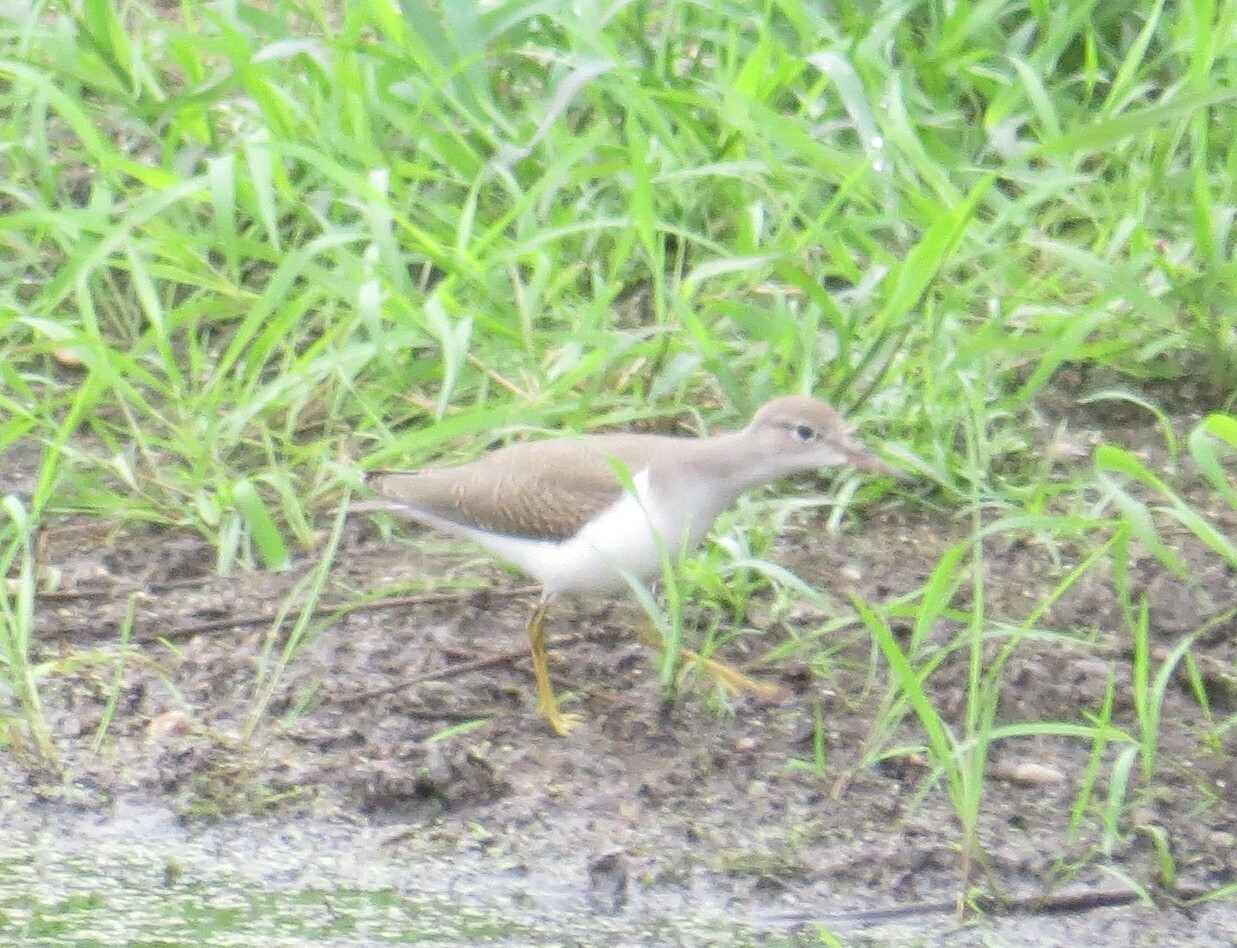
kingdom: Animalia
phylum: Chordata
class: Aves
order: Charadriiformes
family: Scolopacidae
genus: Actitis
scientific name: Actitis macularius
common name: Spotted sandpiper
